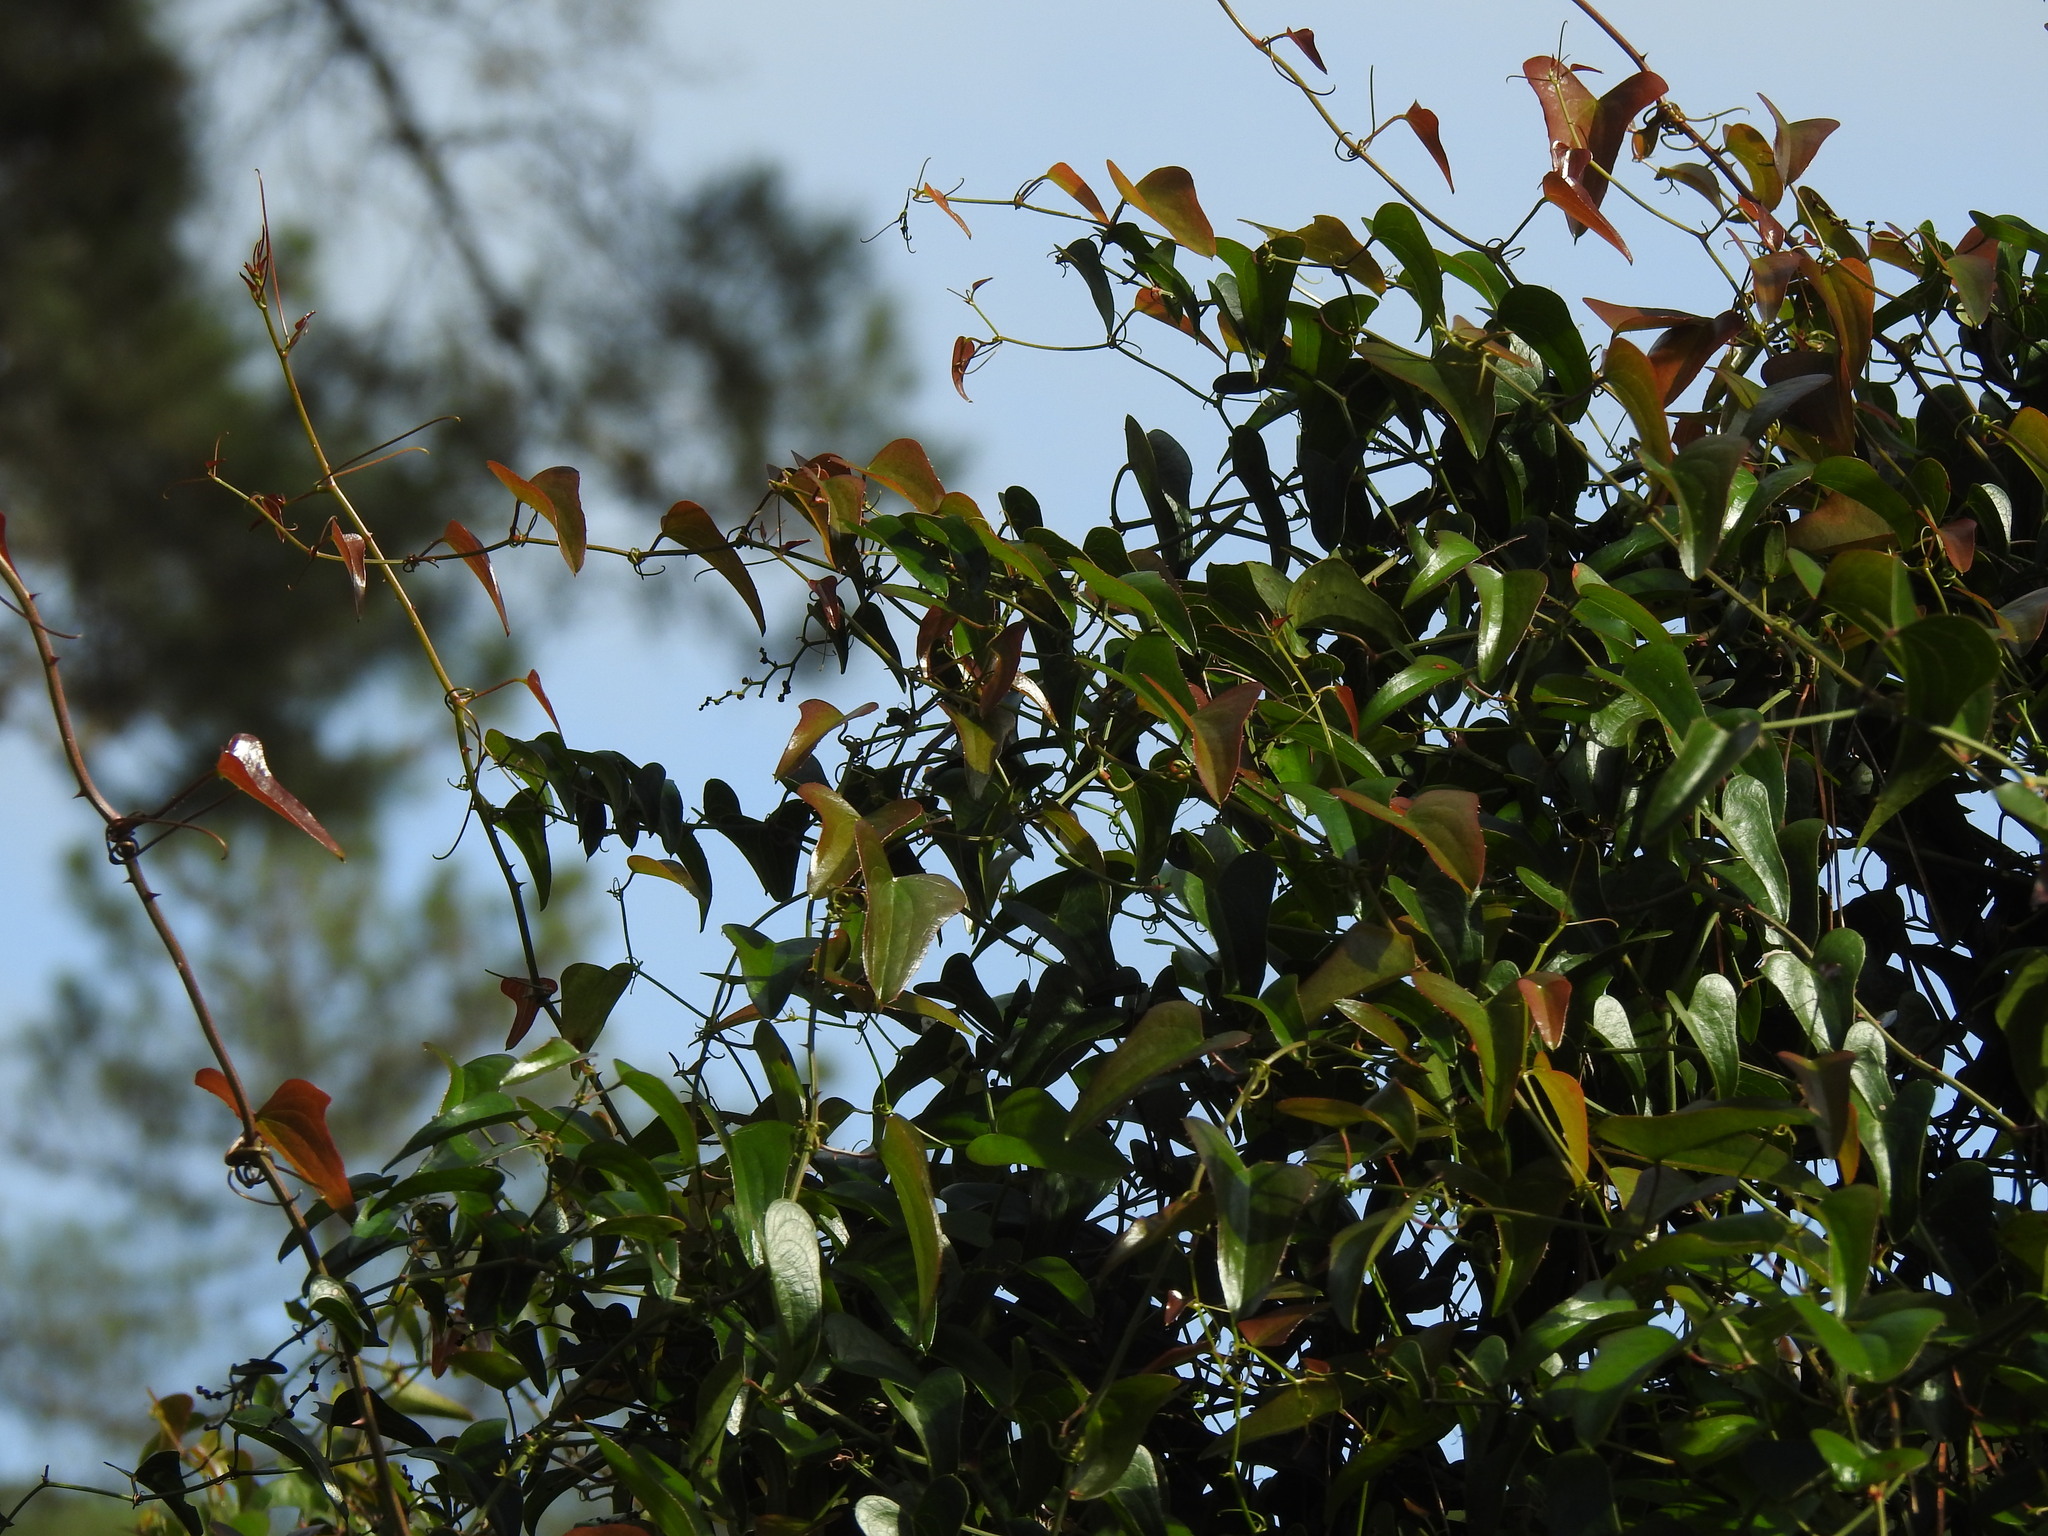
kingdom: Plantae
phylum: Tracheophyta
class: Liliopsida
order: Liliales
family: Smilacaceae
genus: Smilax
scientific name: Smilax aspera
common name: Common smilax
